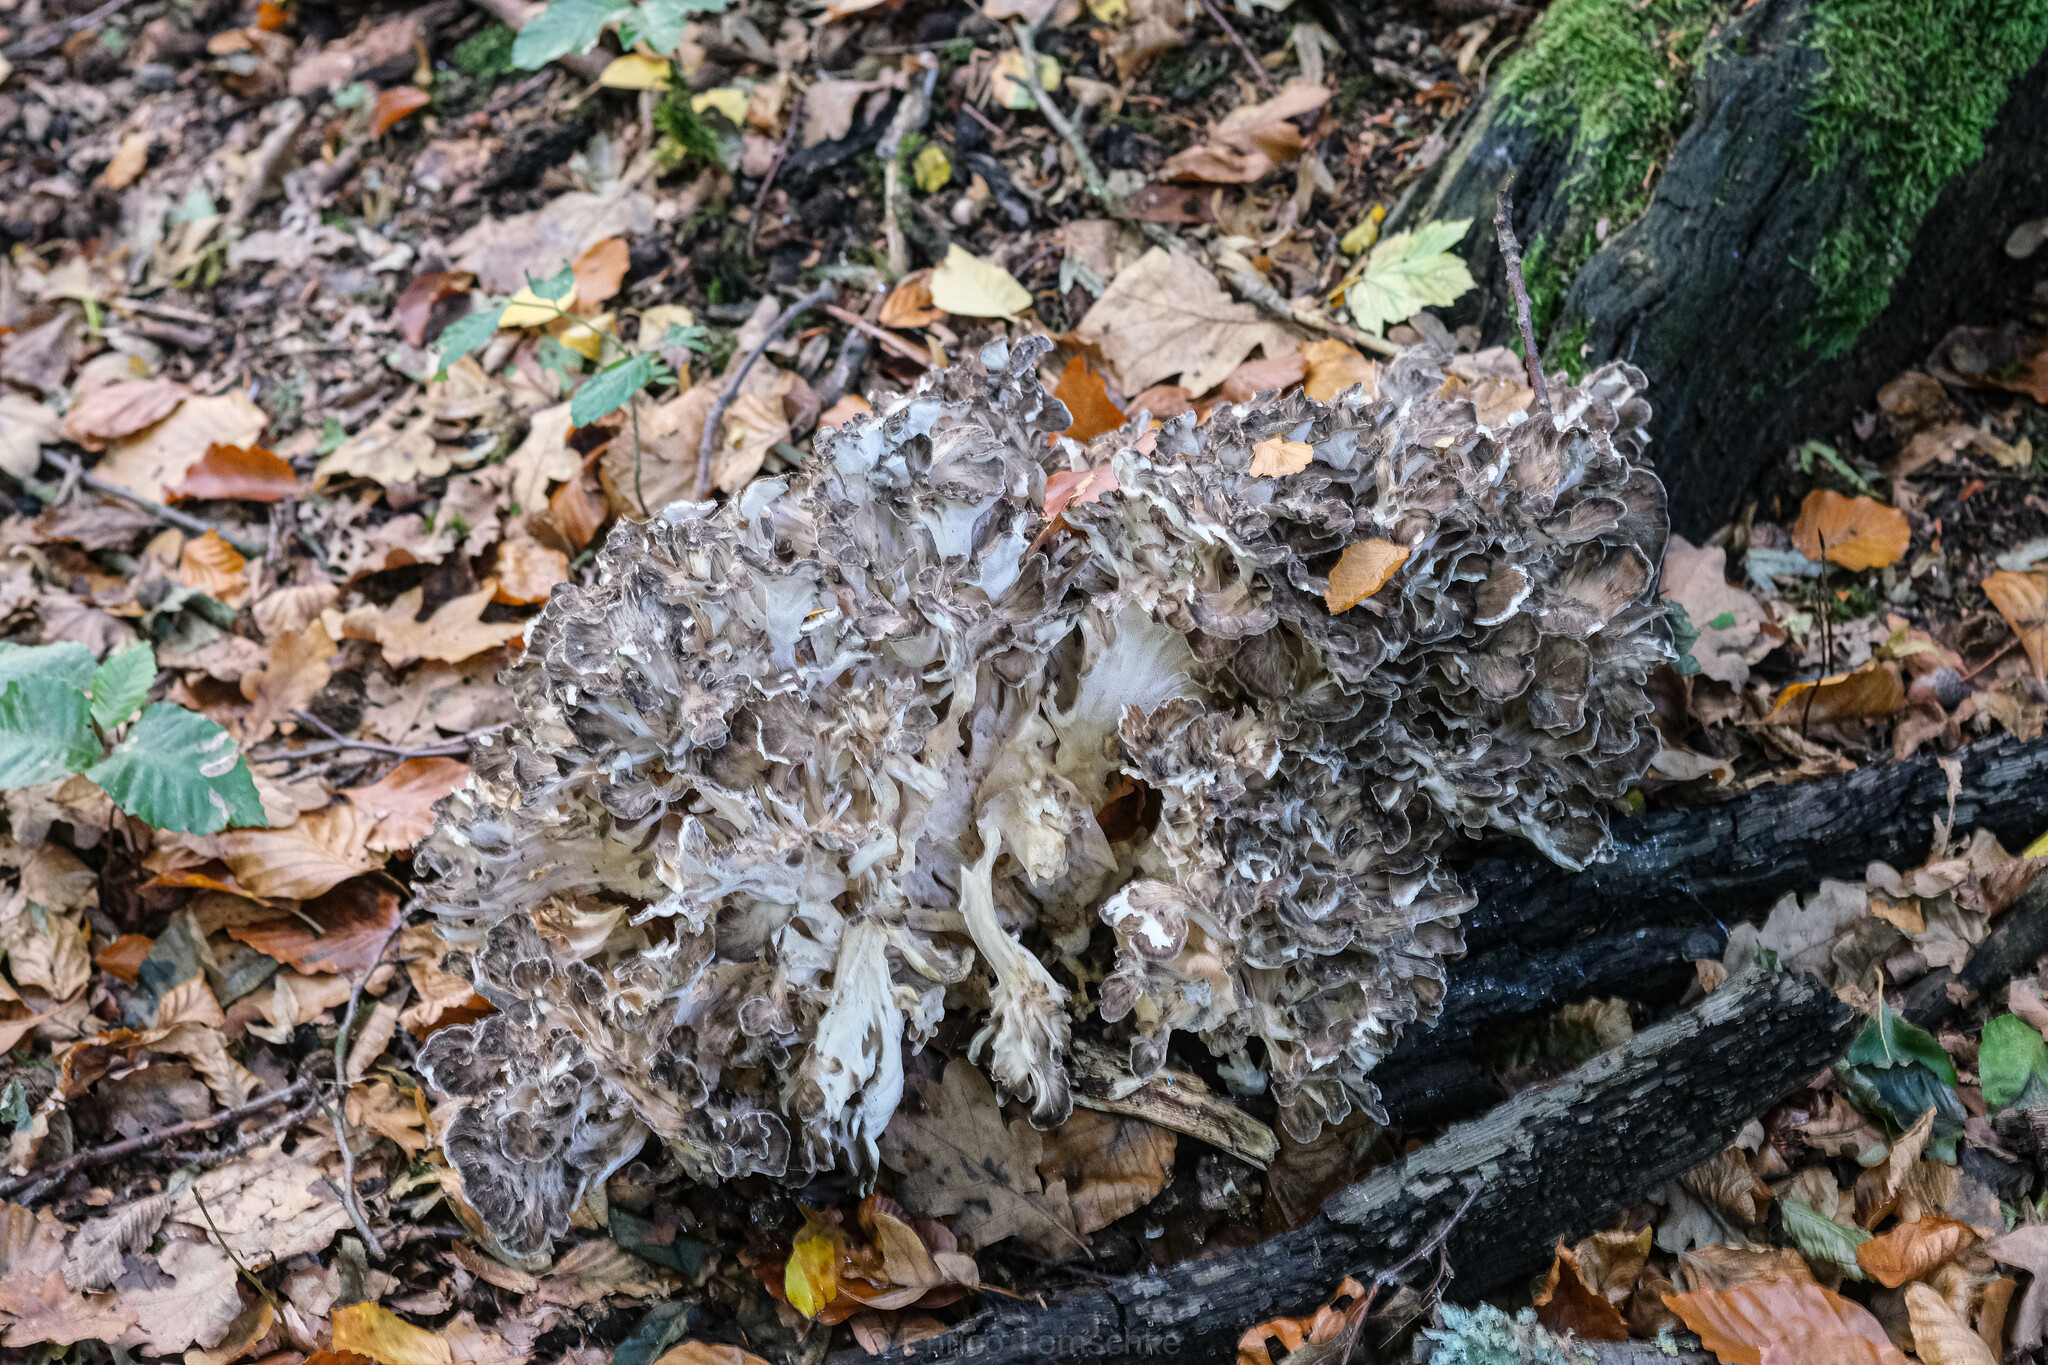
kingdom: Fungi
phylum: Basidiomycota
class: Agaricomycetes
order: Polyporales
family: Grifolaceae
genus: Grifola
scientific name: Grifola frondosa
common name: Hen of the woods
